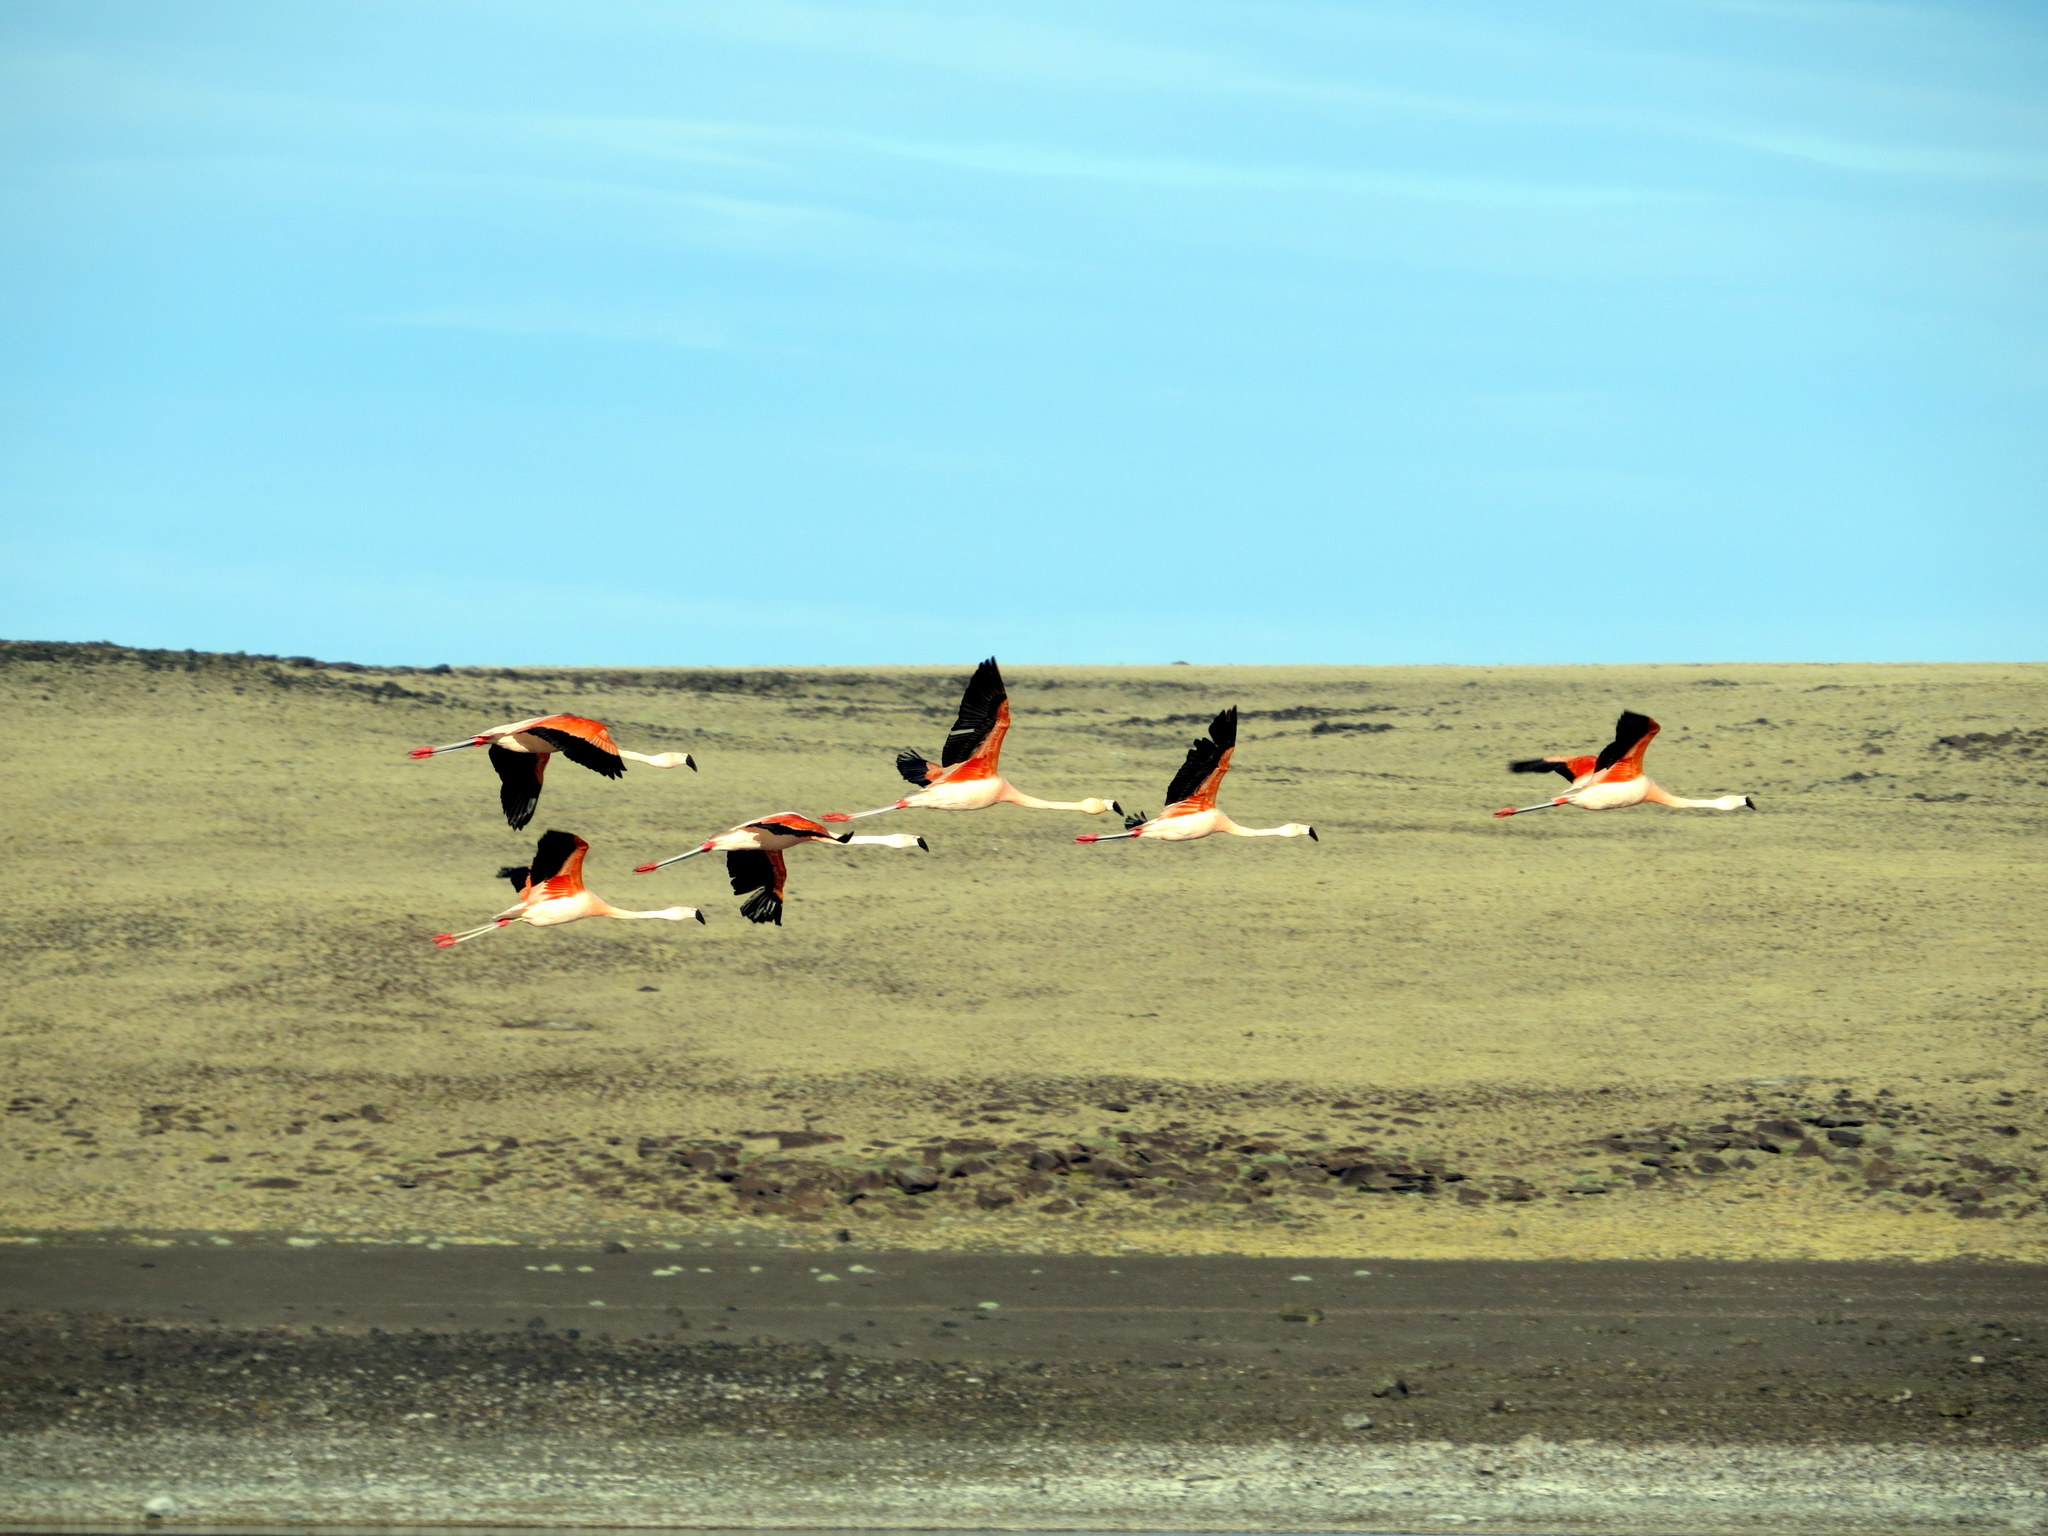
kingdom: Animalia
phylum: Chordata
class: Aves
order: Phoenicopteriformes
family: Phoenicopteridae
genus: Phoenicopterus
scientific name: Phoenicopterus chilensis
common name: Chilean flamingo
